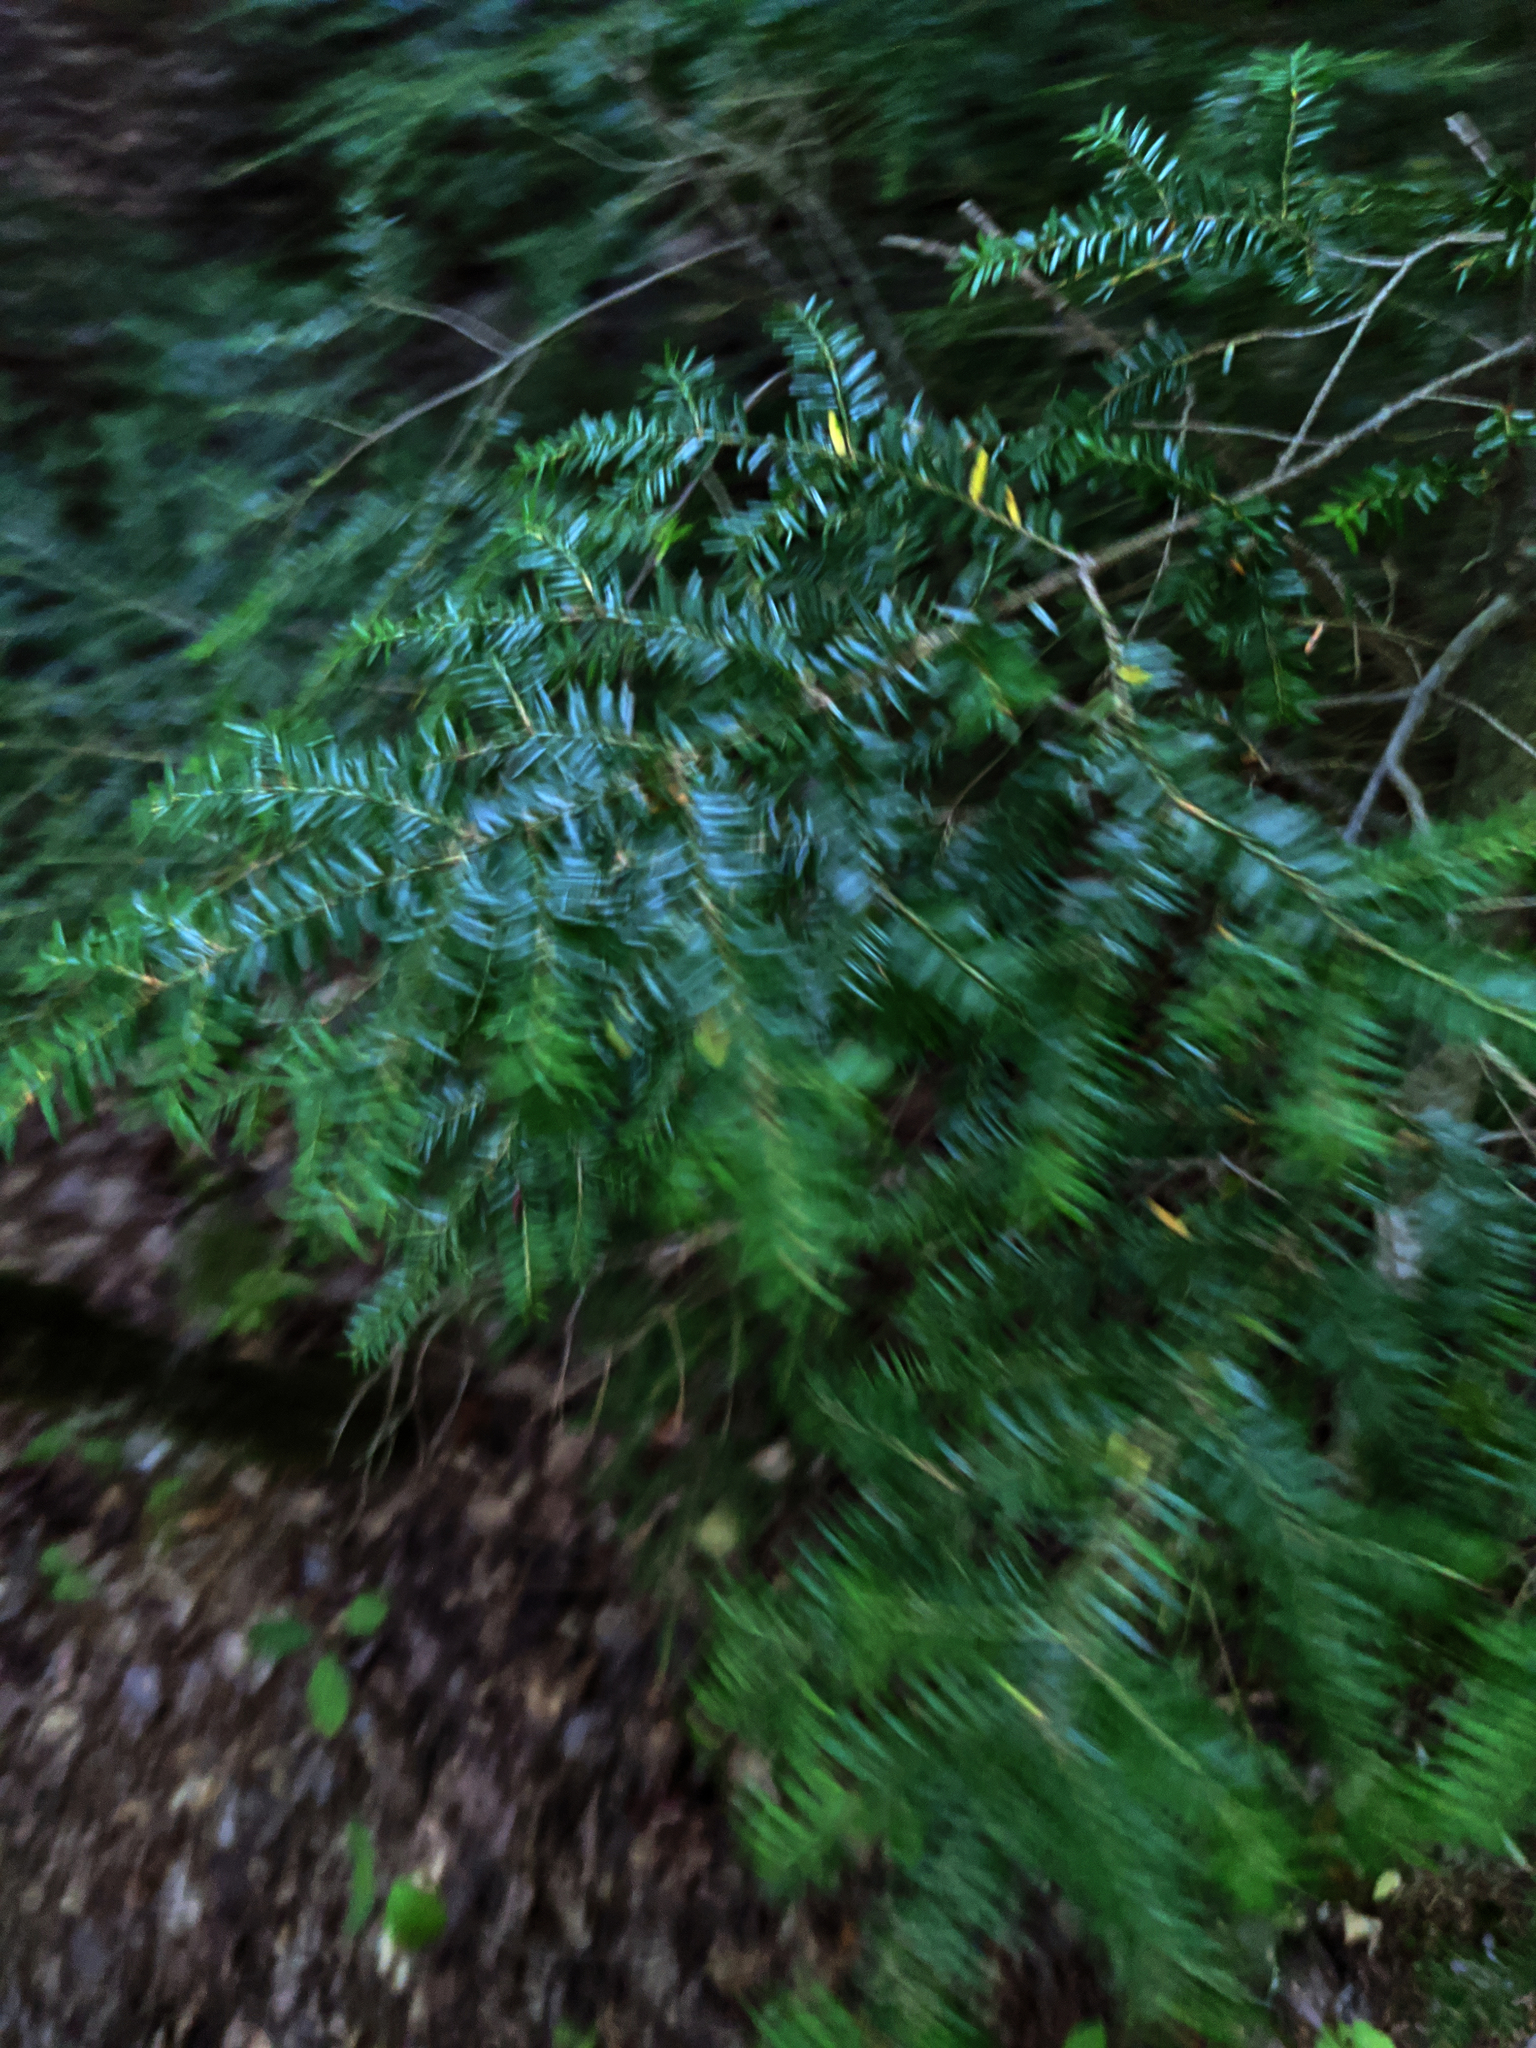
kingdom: Plantae
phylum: Tracheophyta
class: Pinopsida
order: Pinales
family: Pinaceae
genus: Tsuga
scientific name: Tsuga canadensis
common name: Eastern hemlock
